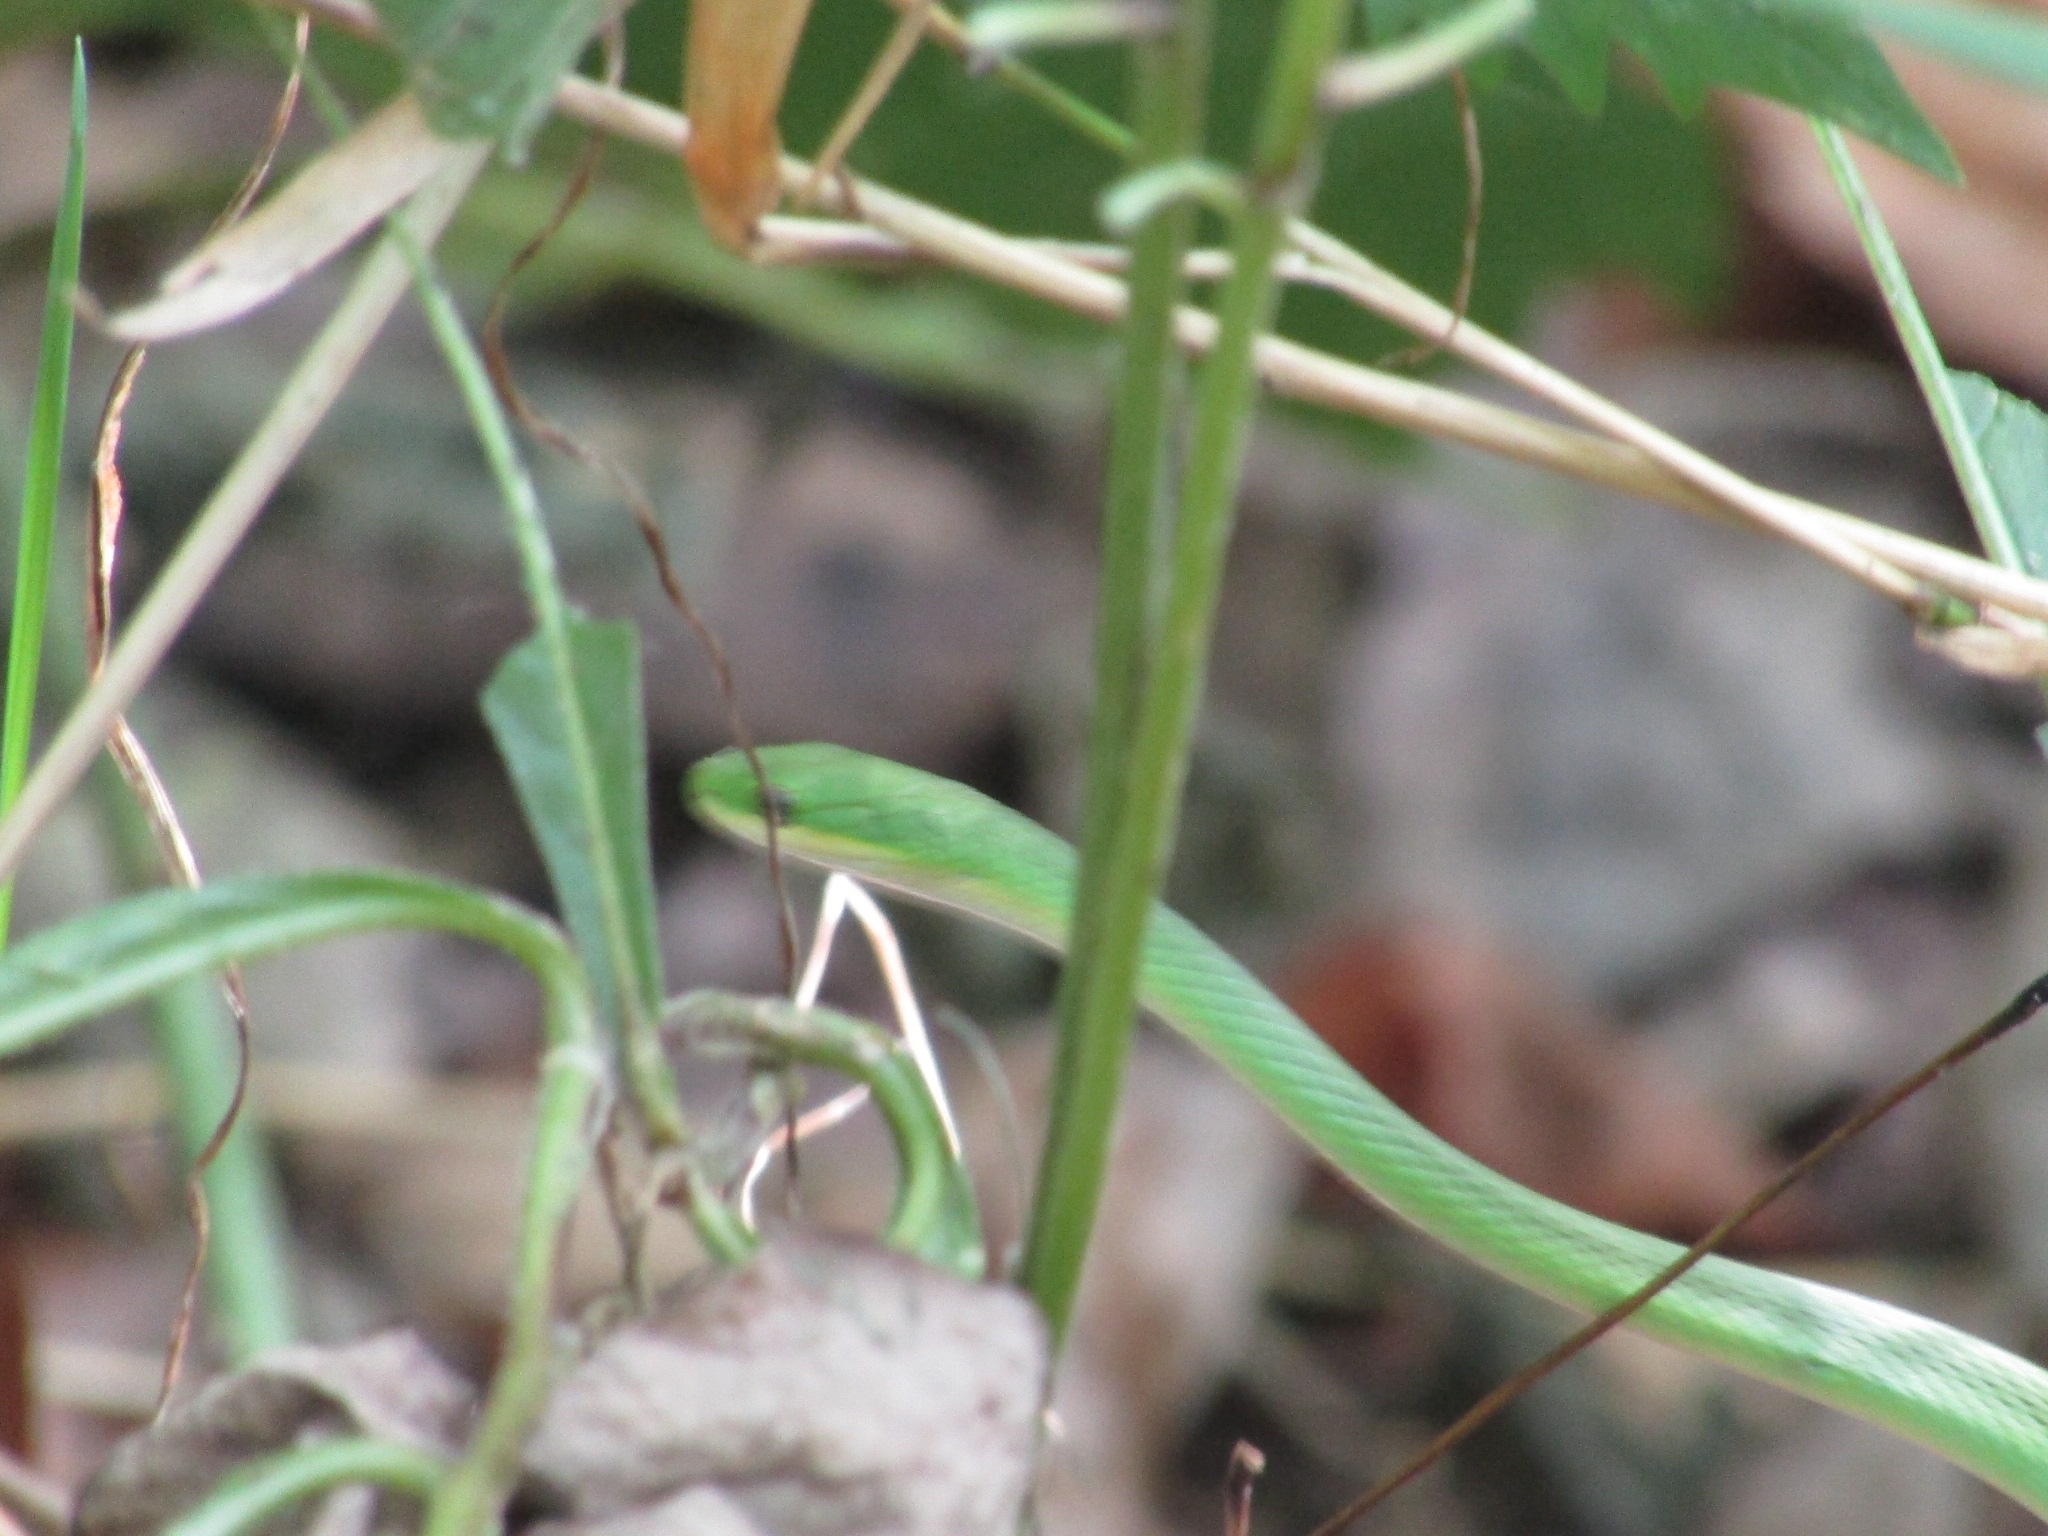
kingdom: Animalia
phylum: Chordata
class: Squamata
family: Colubridae
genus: Opheodrys
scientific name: Opheodrys aestivus
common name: Rough greensnake
